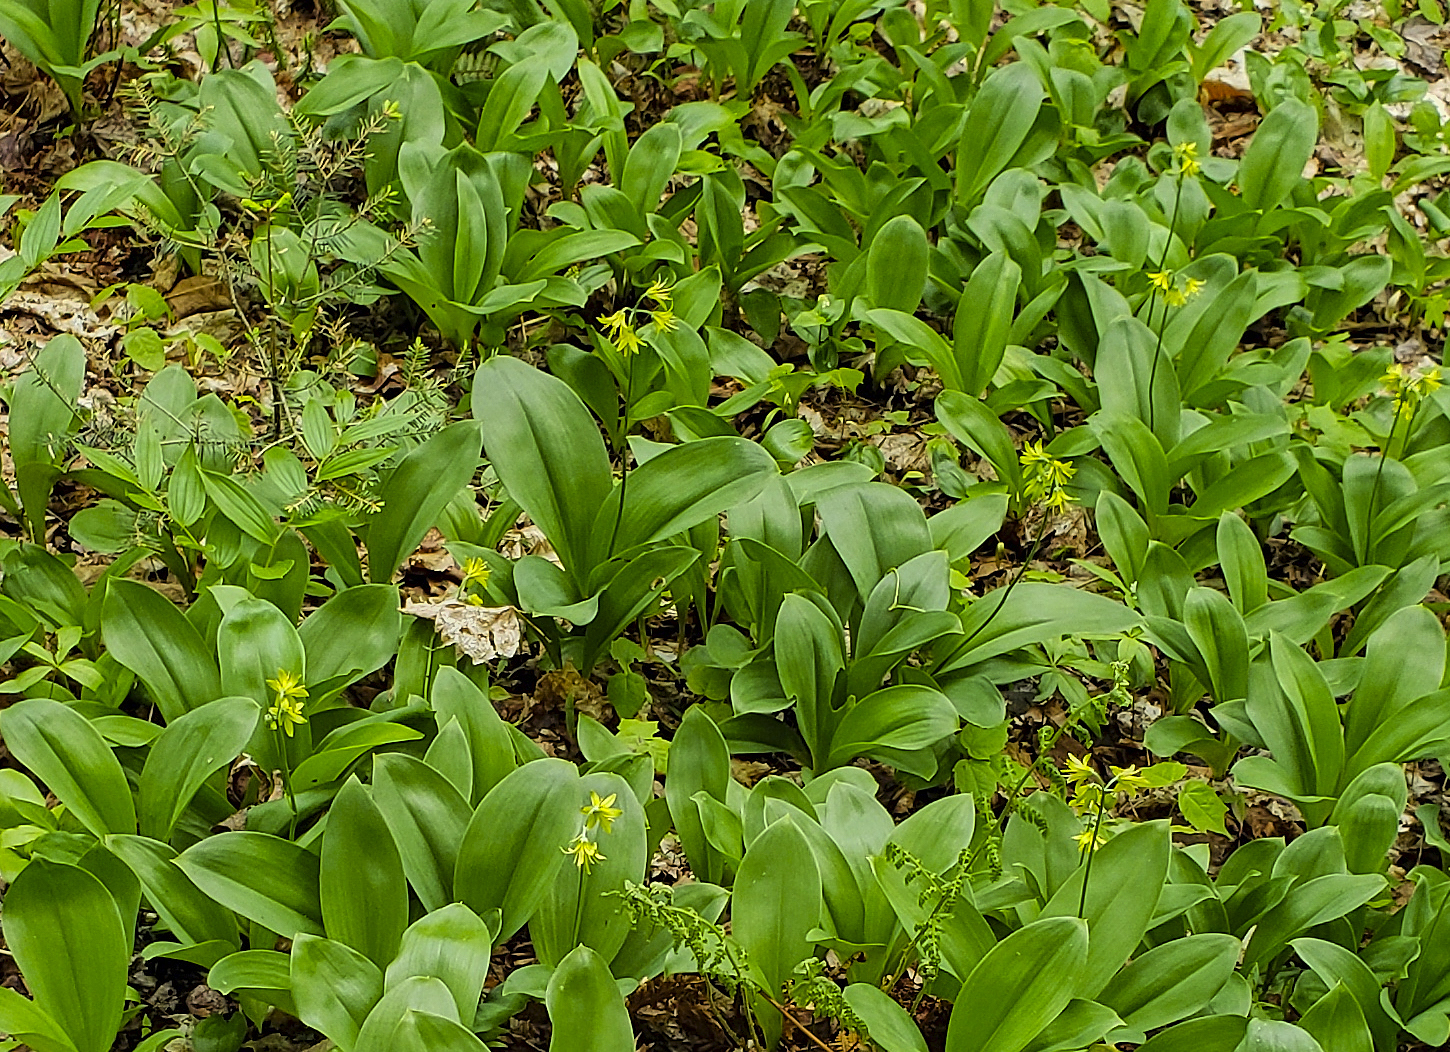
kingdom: Plantae
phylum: Tracheophyta
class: Liliopsida
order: Liliales
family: Liliaceae
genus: Clintonia
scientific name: Clintonia borealis
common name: Yellow clintonia
